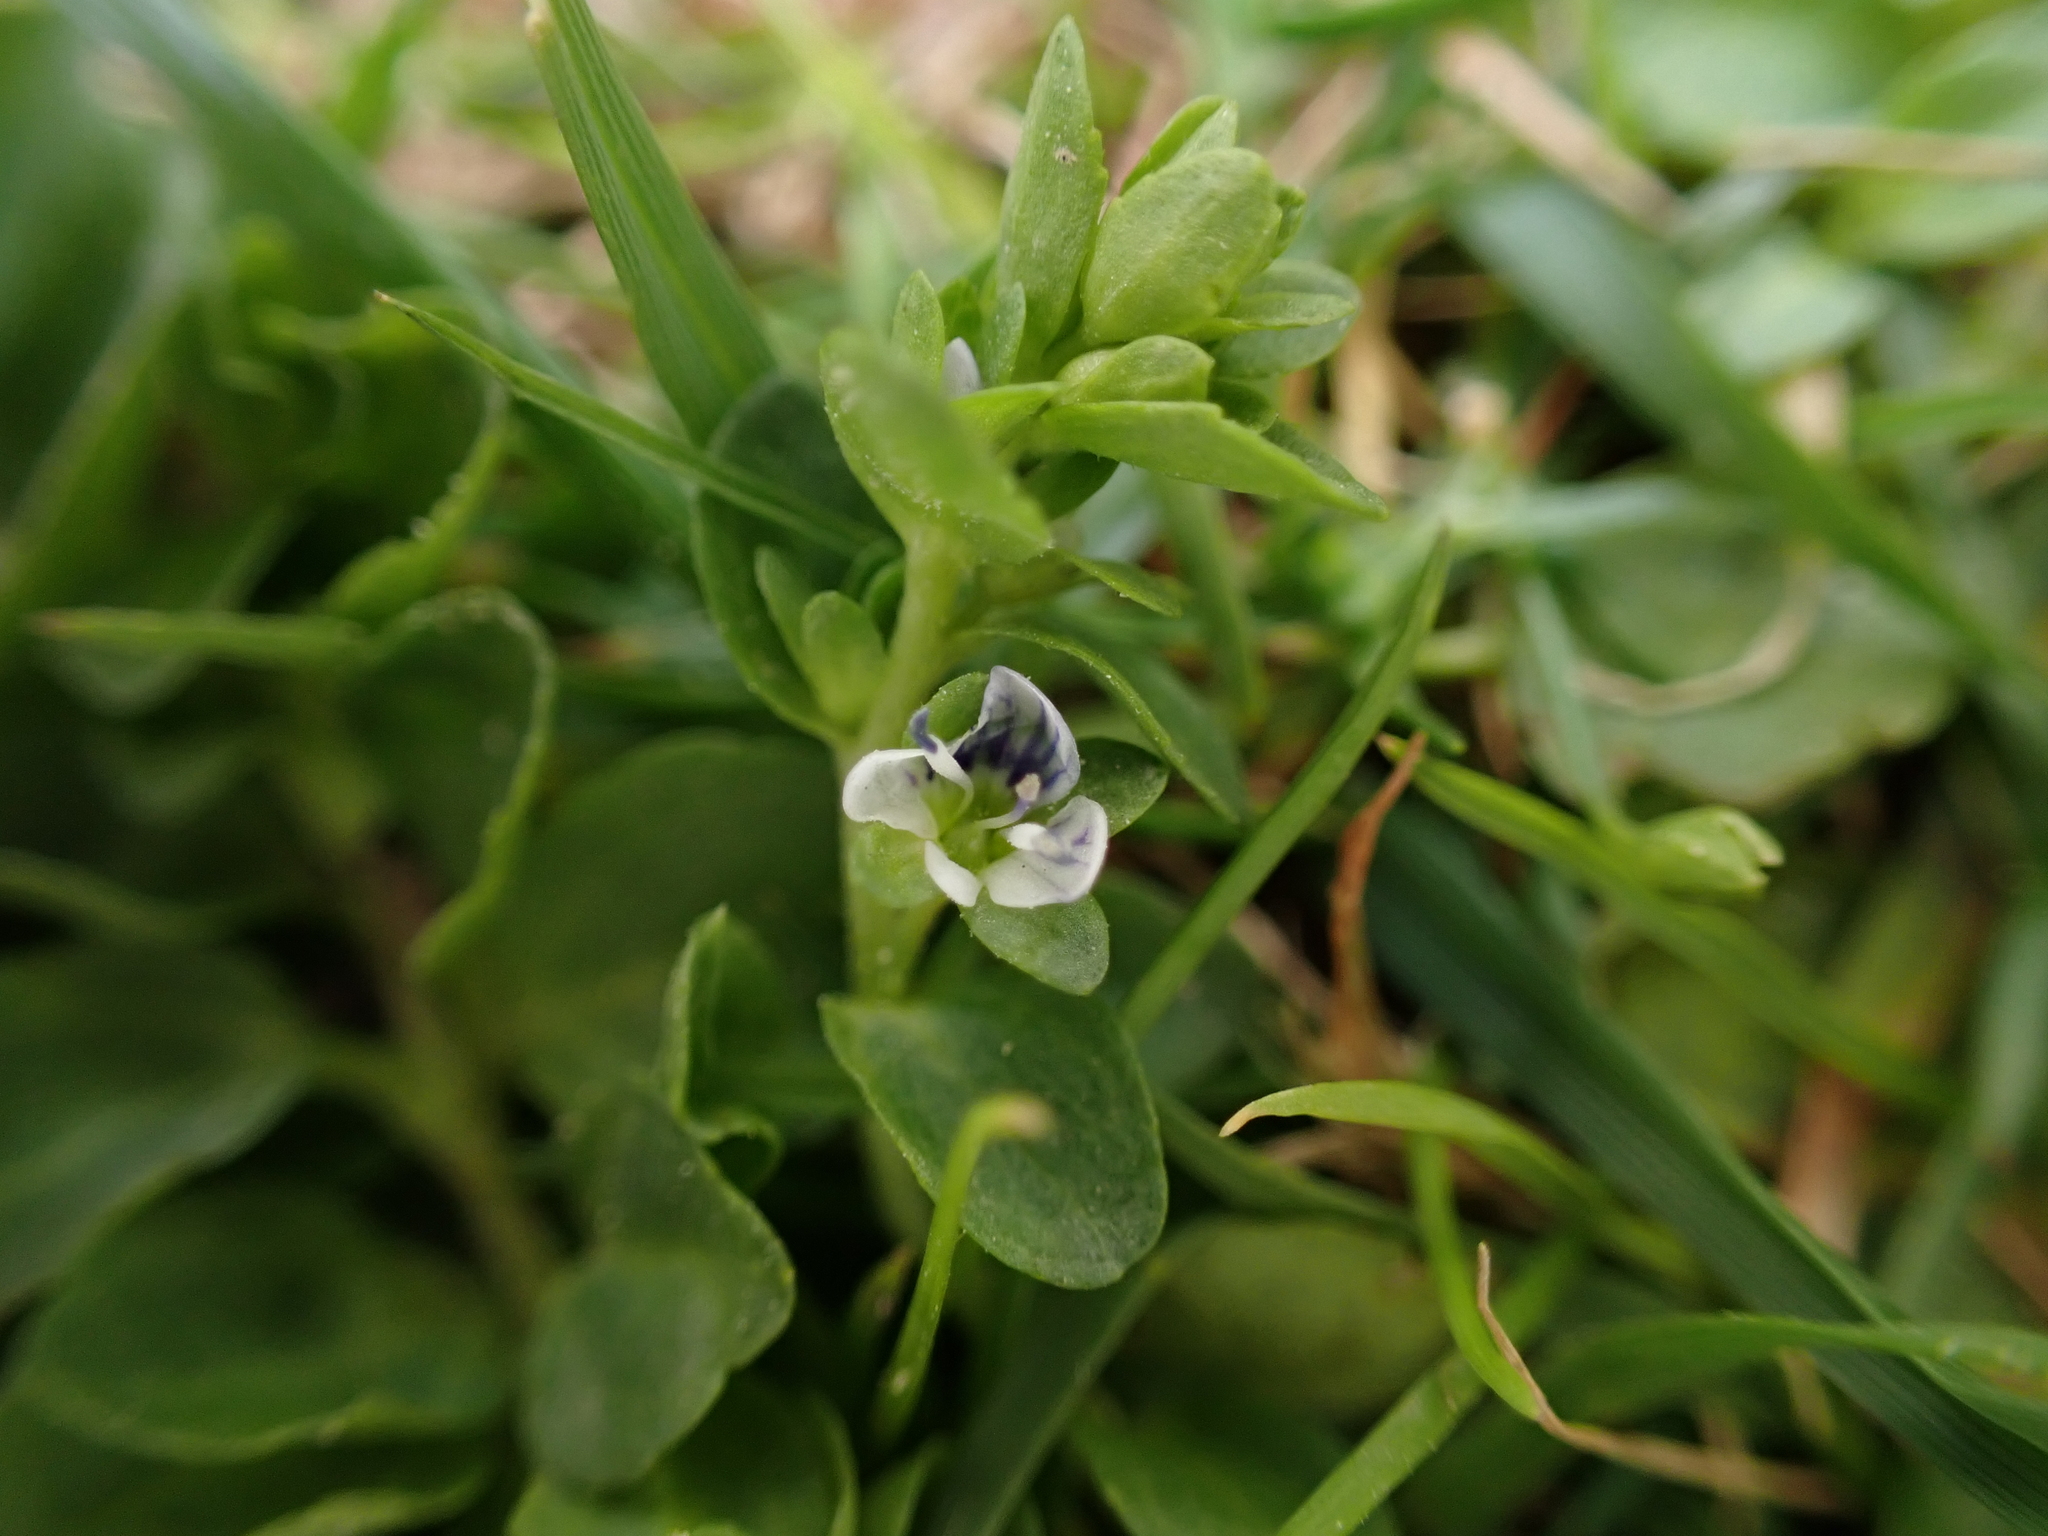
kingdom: Plantae
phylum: Tracheophyta
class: Magnoliopsida
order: Lamiales
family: Plantaginaceae
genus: Veronica
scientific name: Veronica serpyllifolia
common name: Thyme-leaved speedwell
